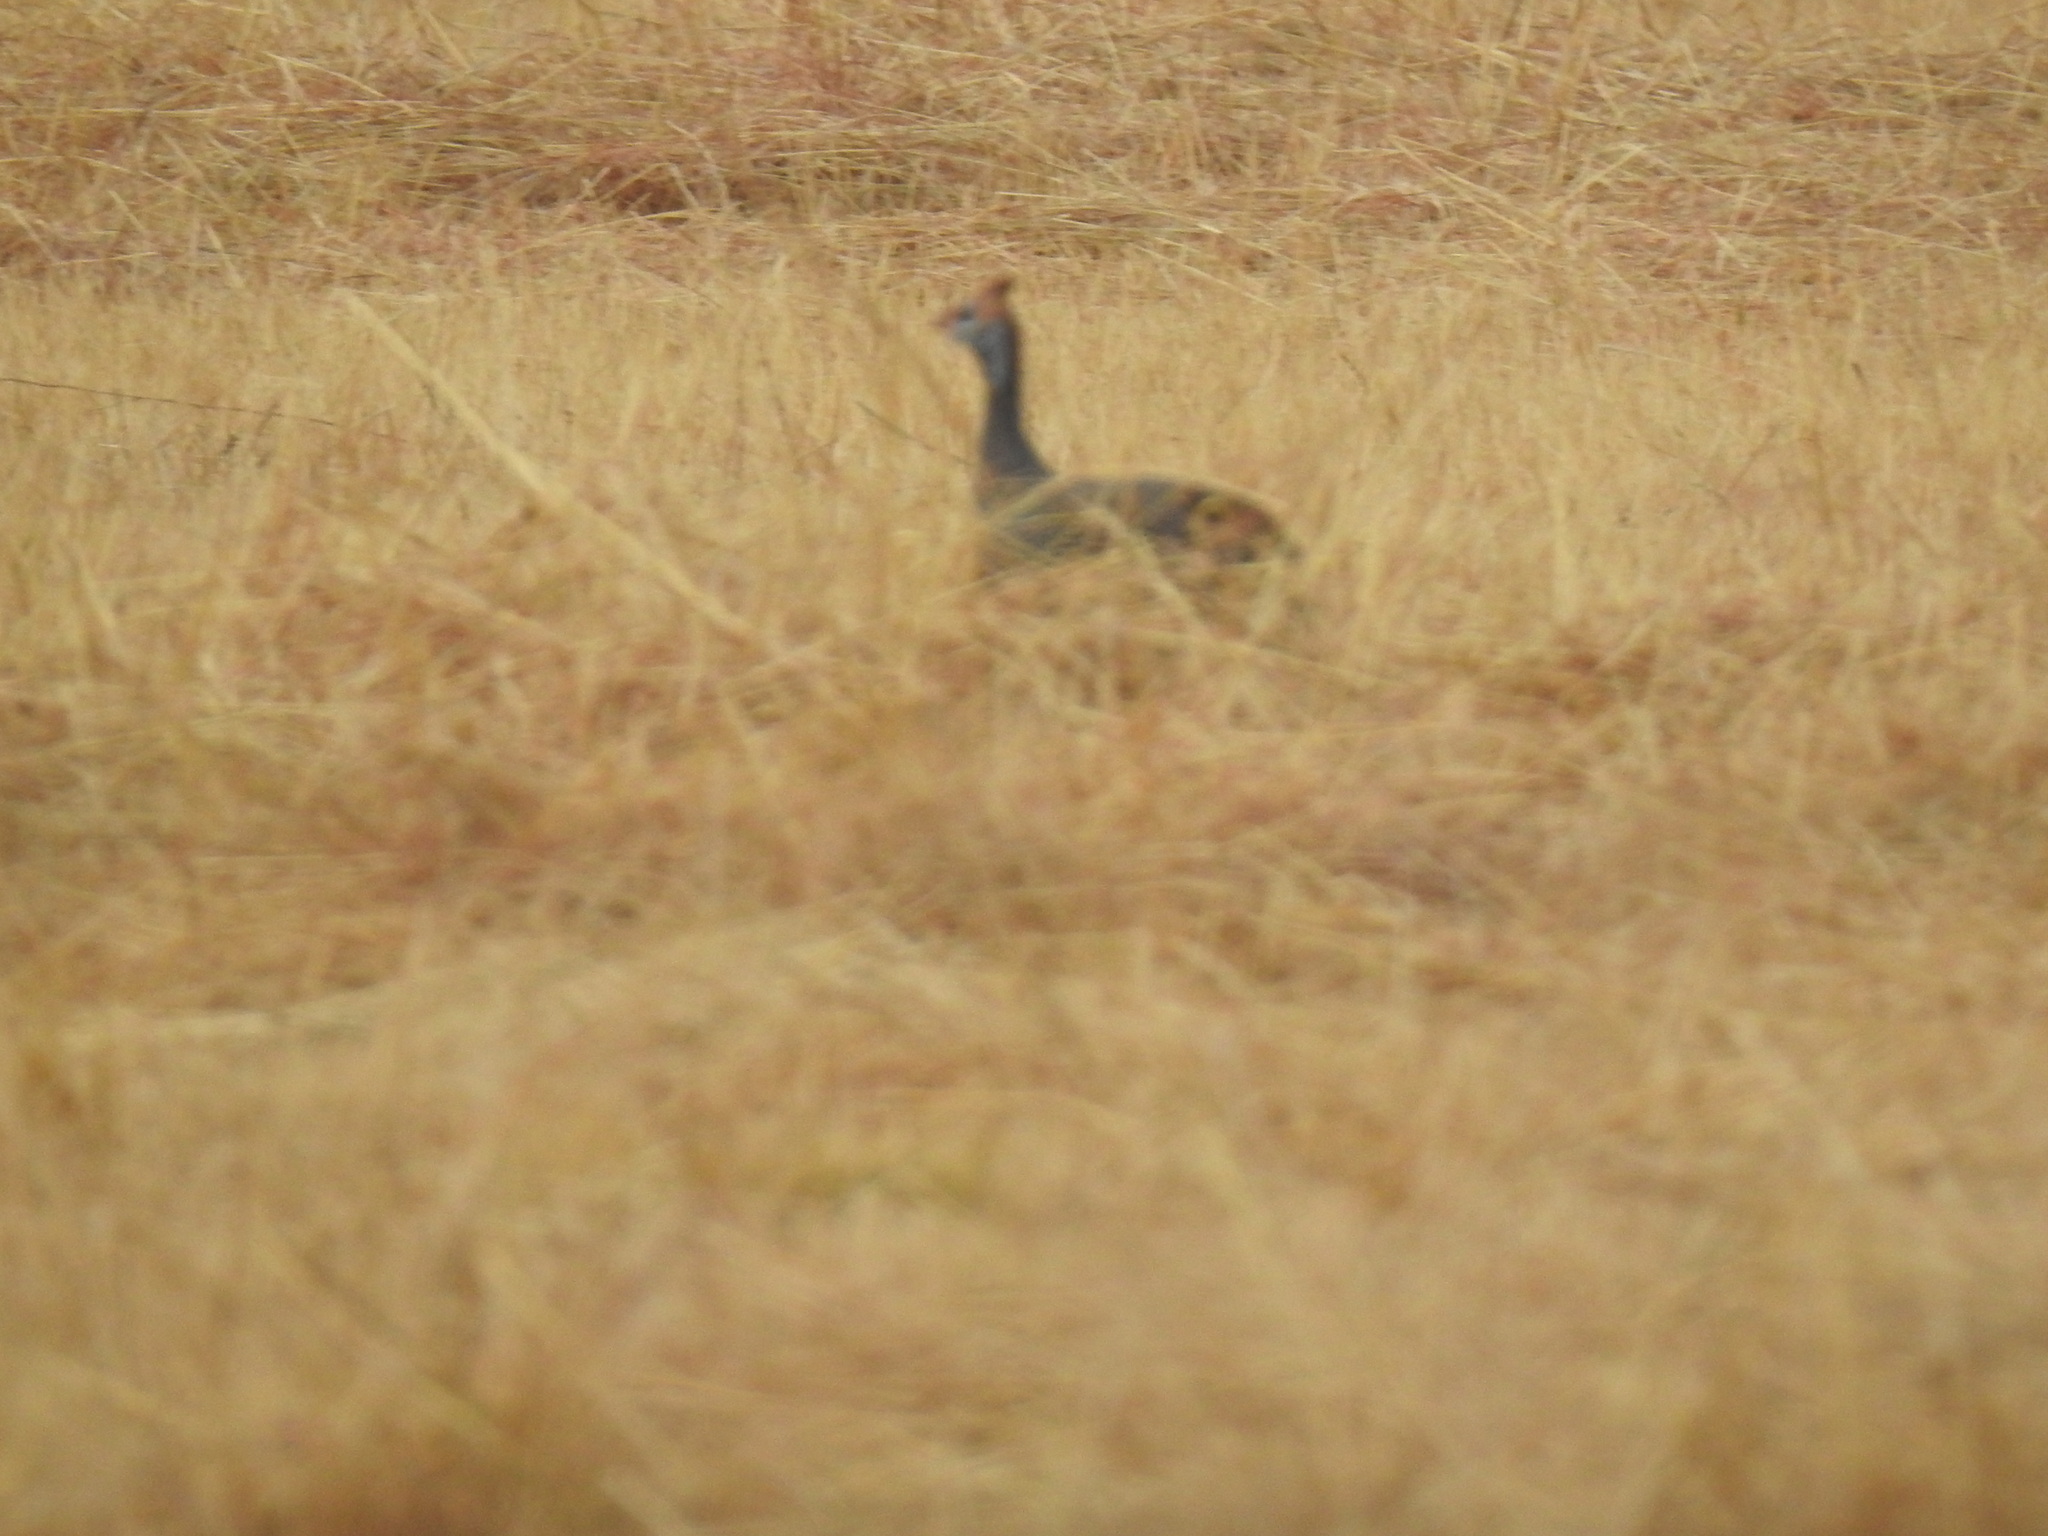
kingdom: Animalia
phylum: Chordata
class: Aves
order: Galliformes
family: Numididae
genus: Numida
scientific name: Numida meleagris
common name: Helmeted guineafowl
